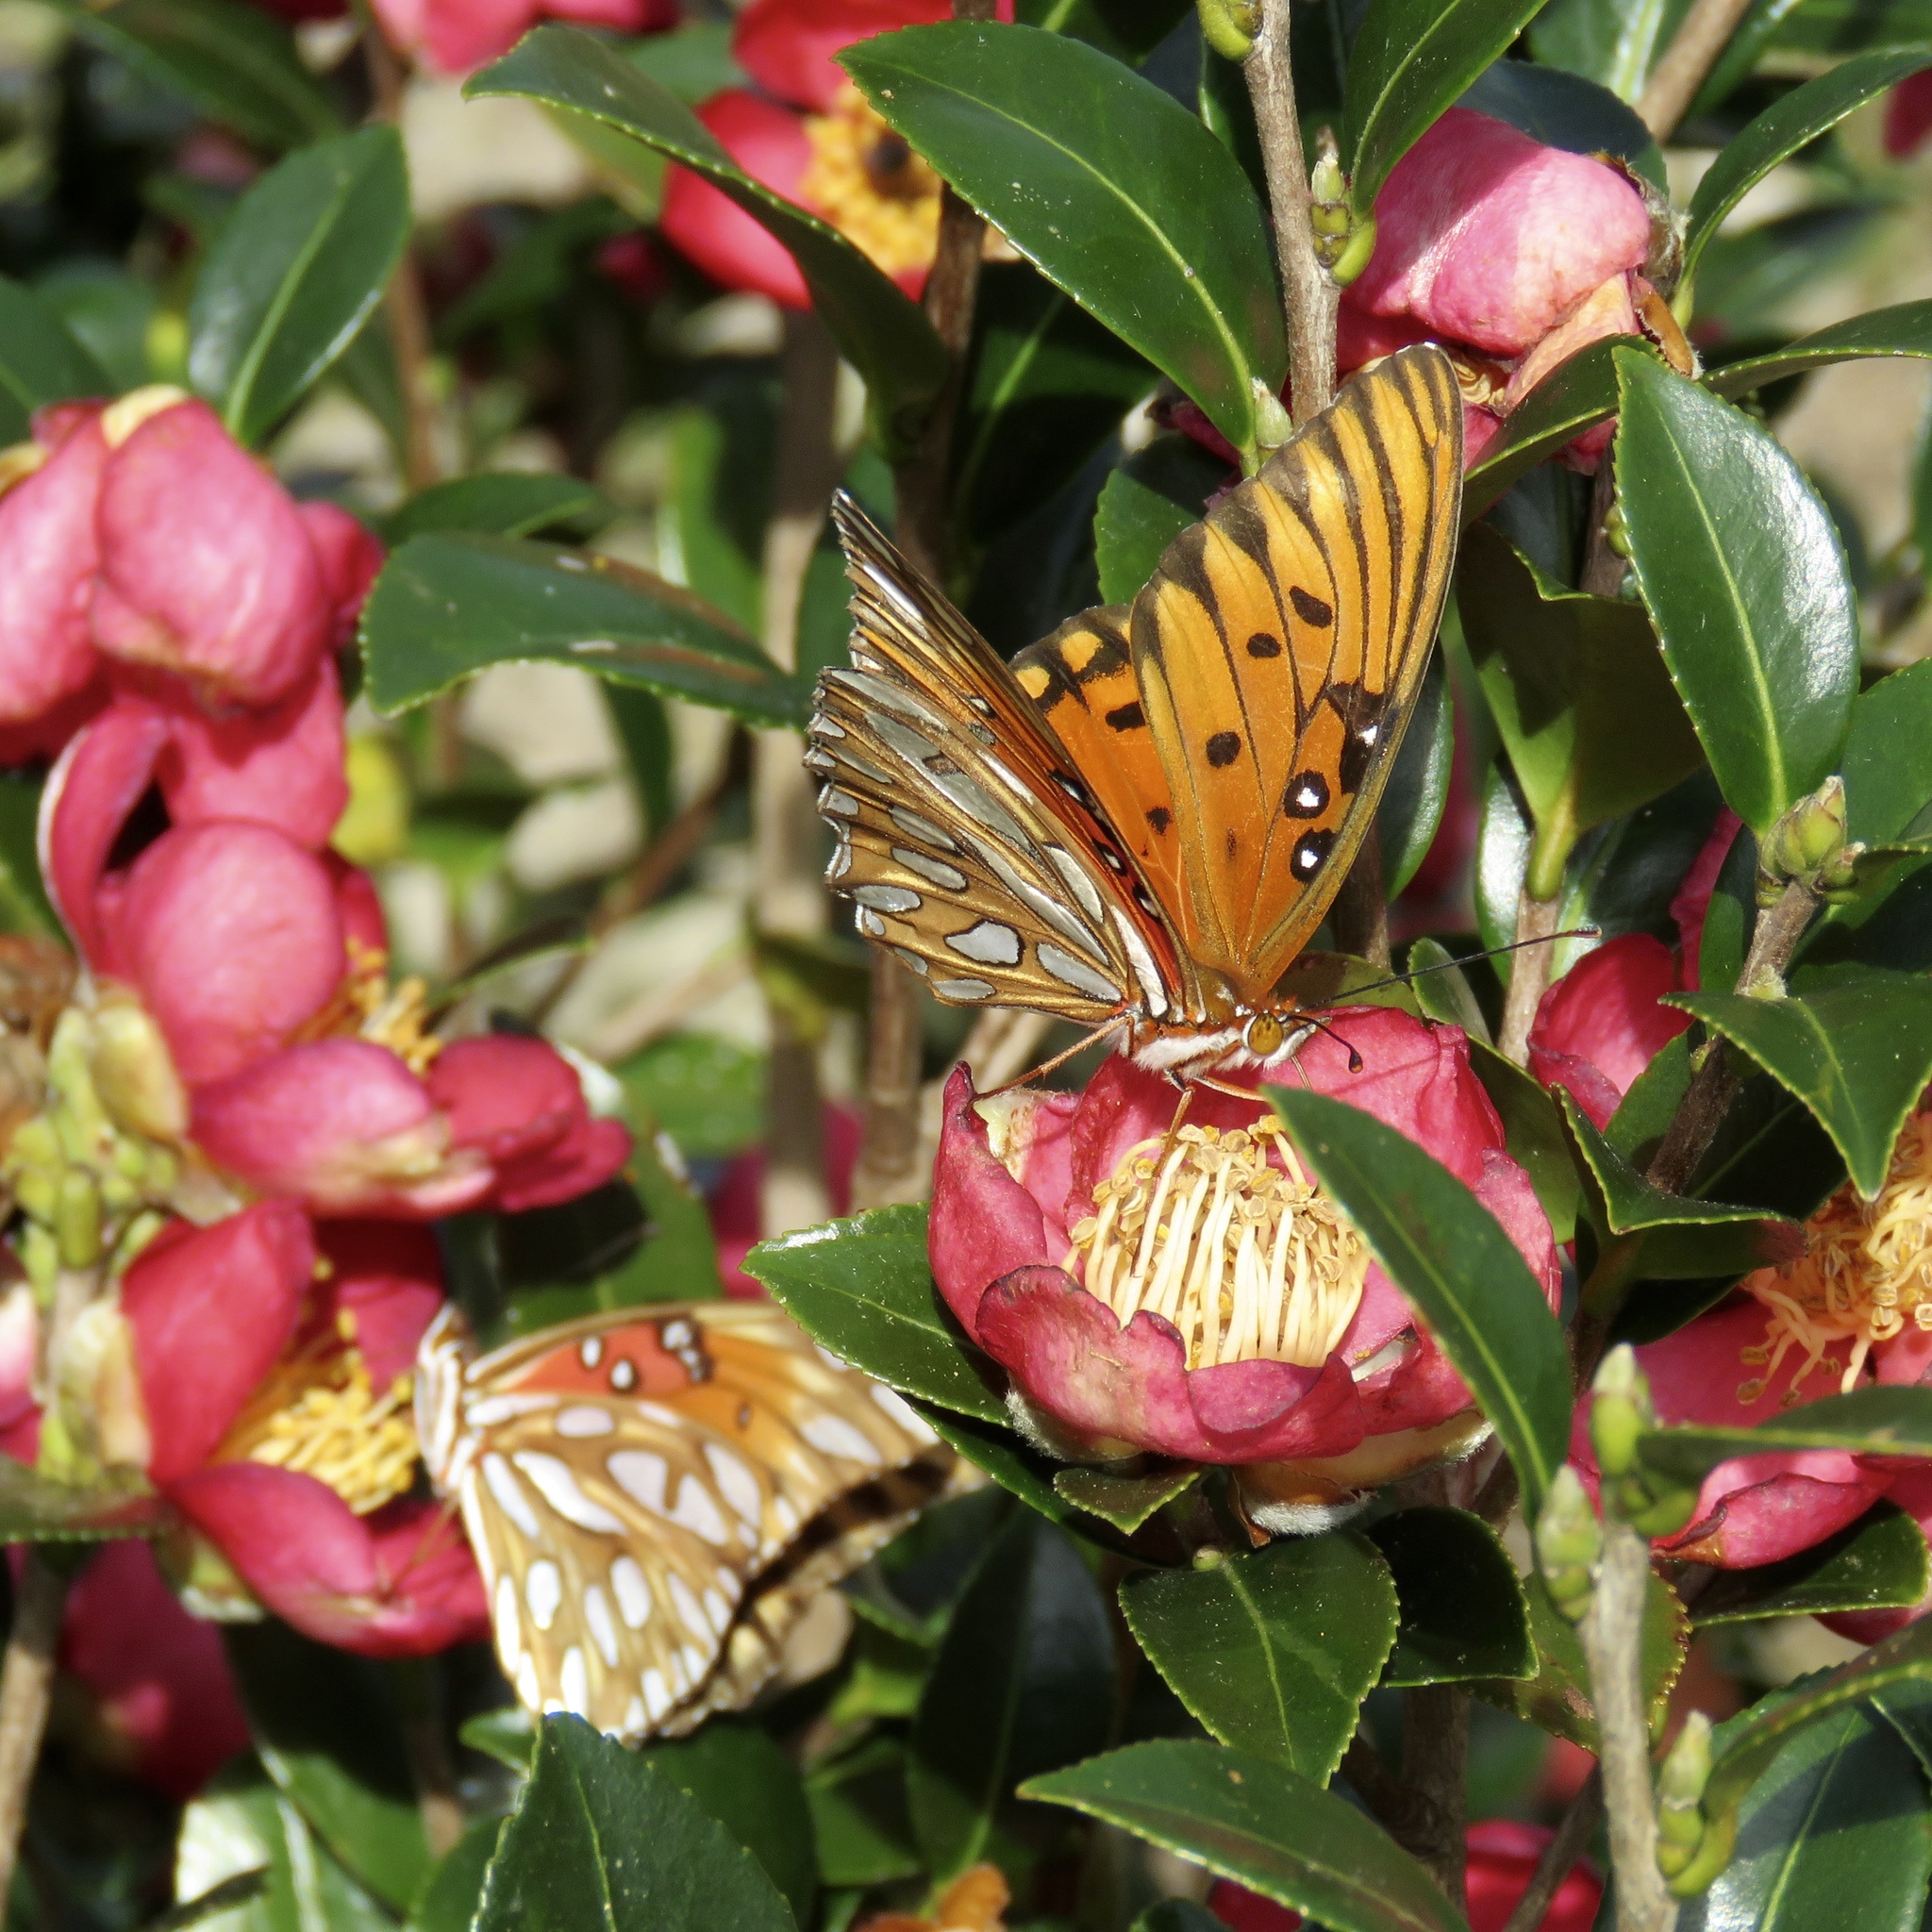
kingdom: Animalia
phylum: Arthropoda
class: Insecta
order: Lepidoptera
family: Nymphalidae
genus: Dione
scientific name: Dione vanillae
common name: Gulf fritillary
